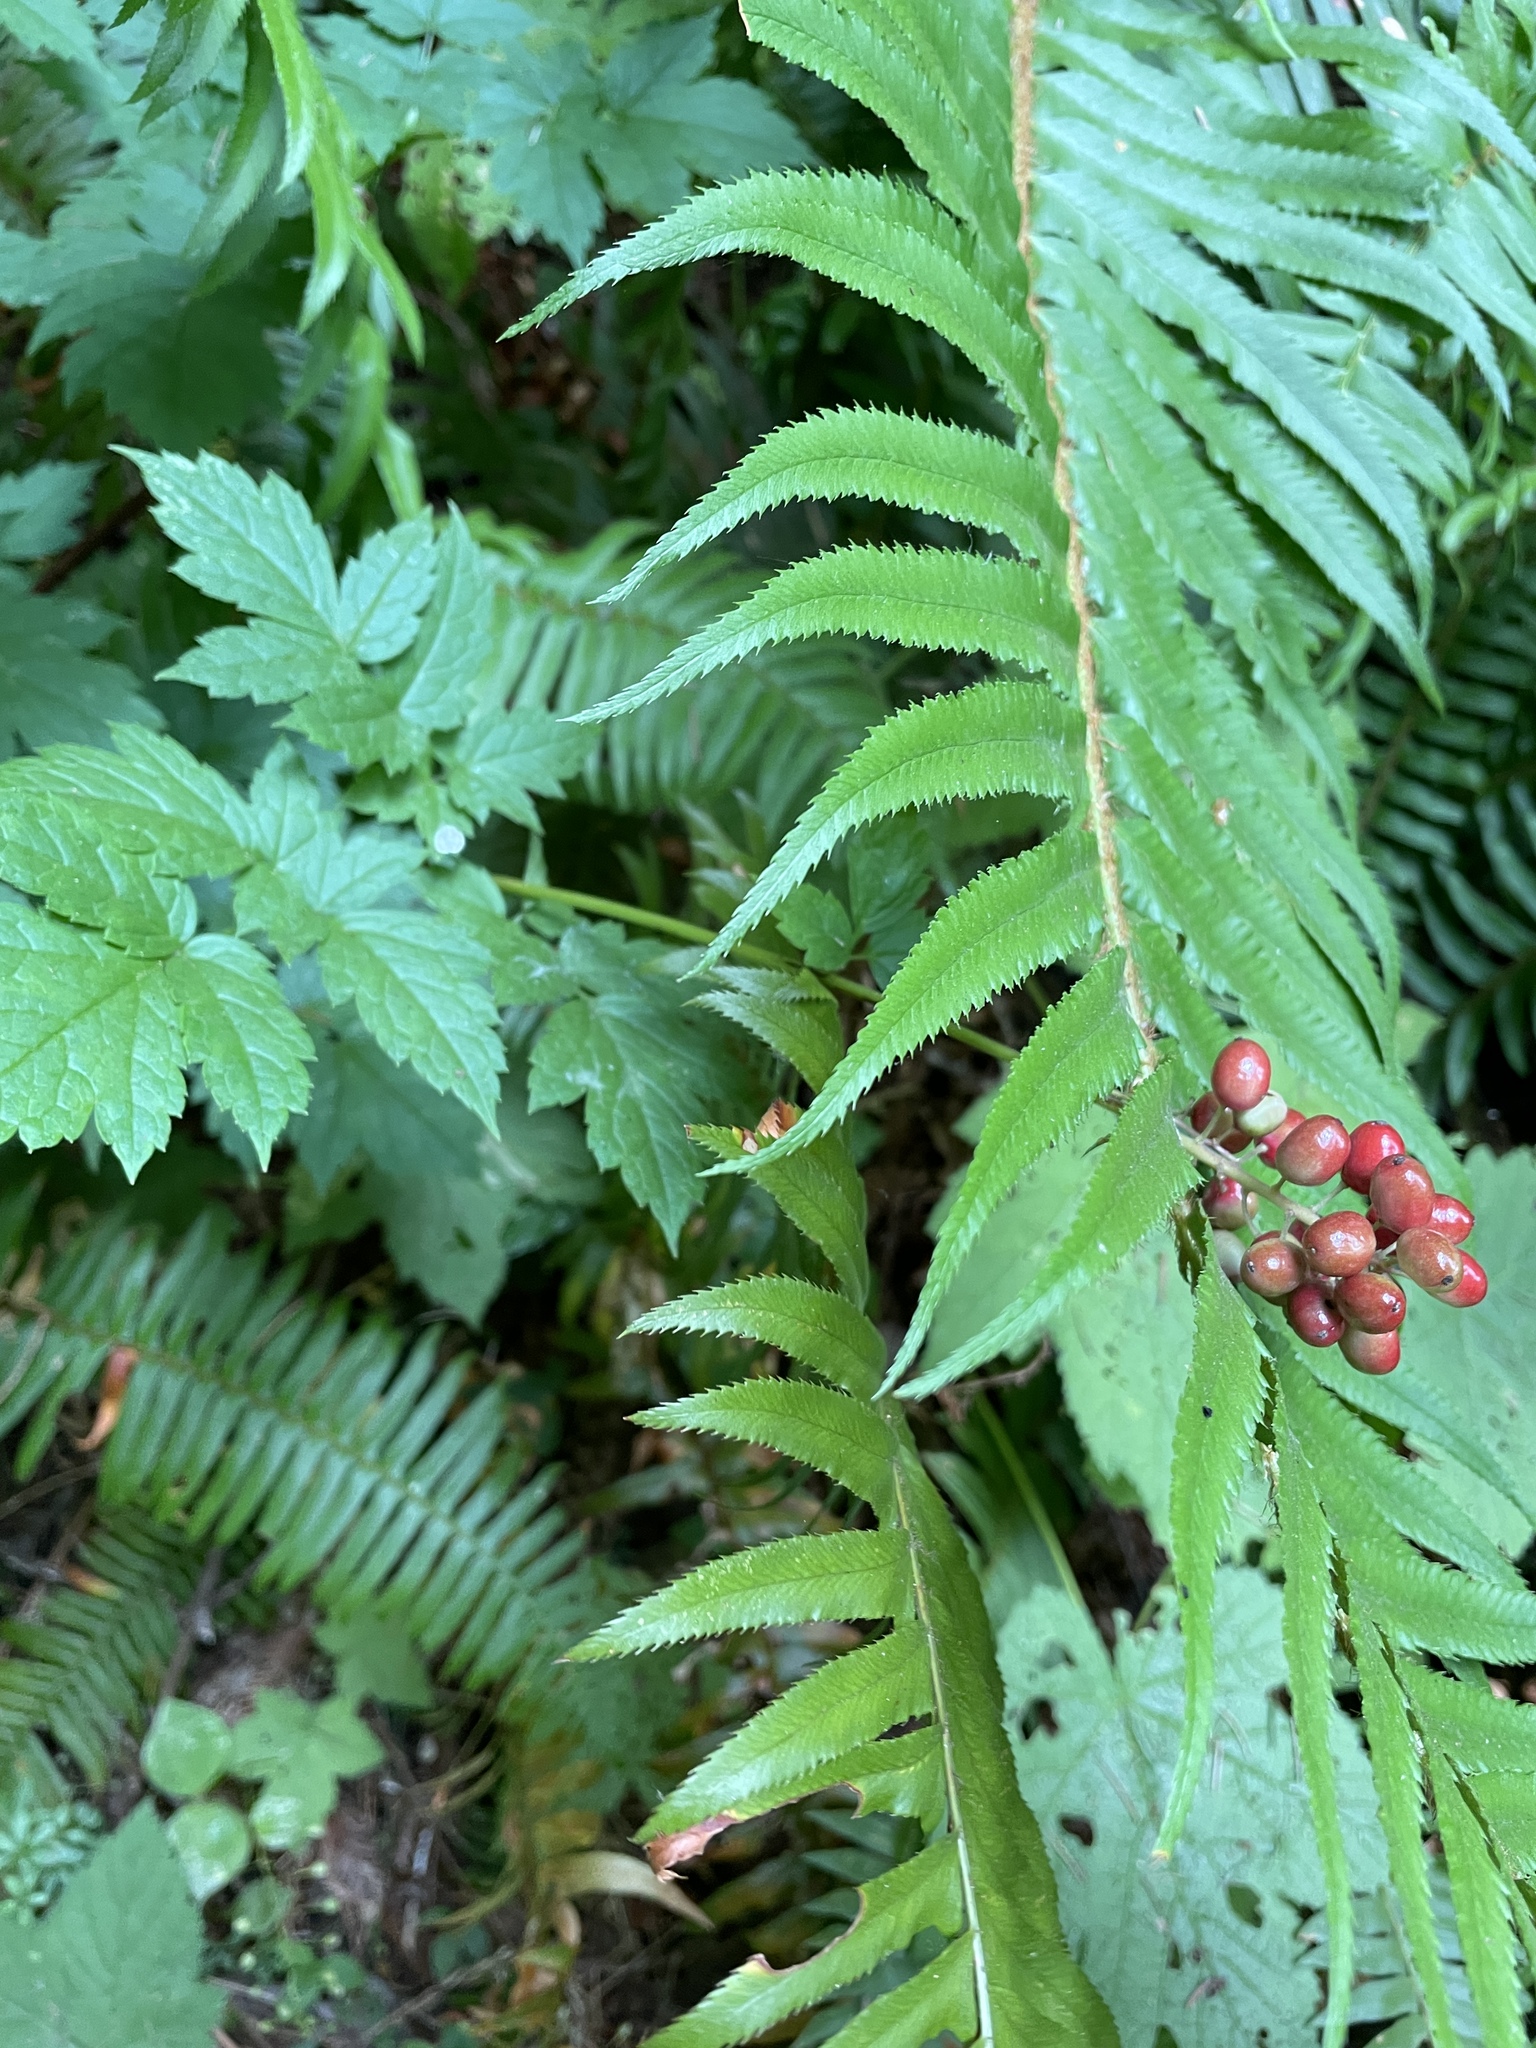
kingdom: Plantae
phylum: Tracheophyta
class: Magnoliopsida
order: Ranunculales
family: Ranunculaceae
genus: Actaea
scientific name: Actaea rubra
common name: Red baneberry
